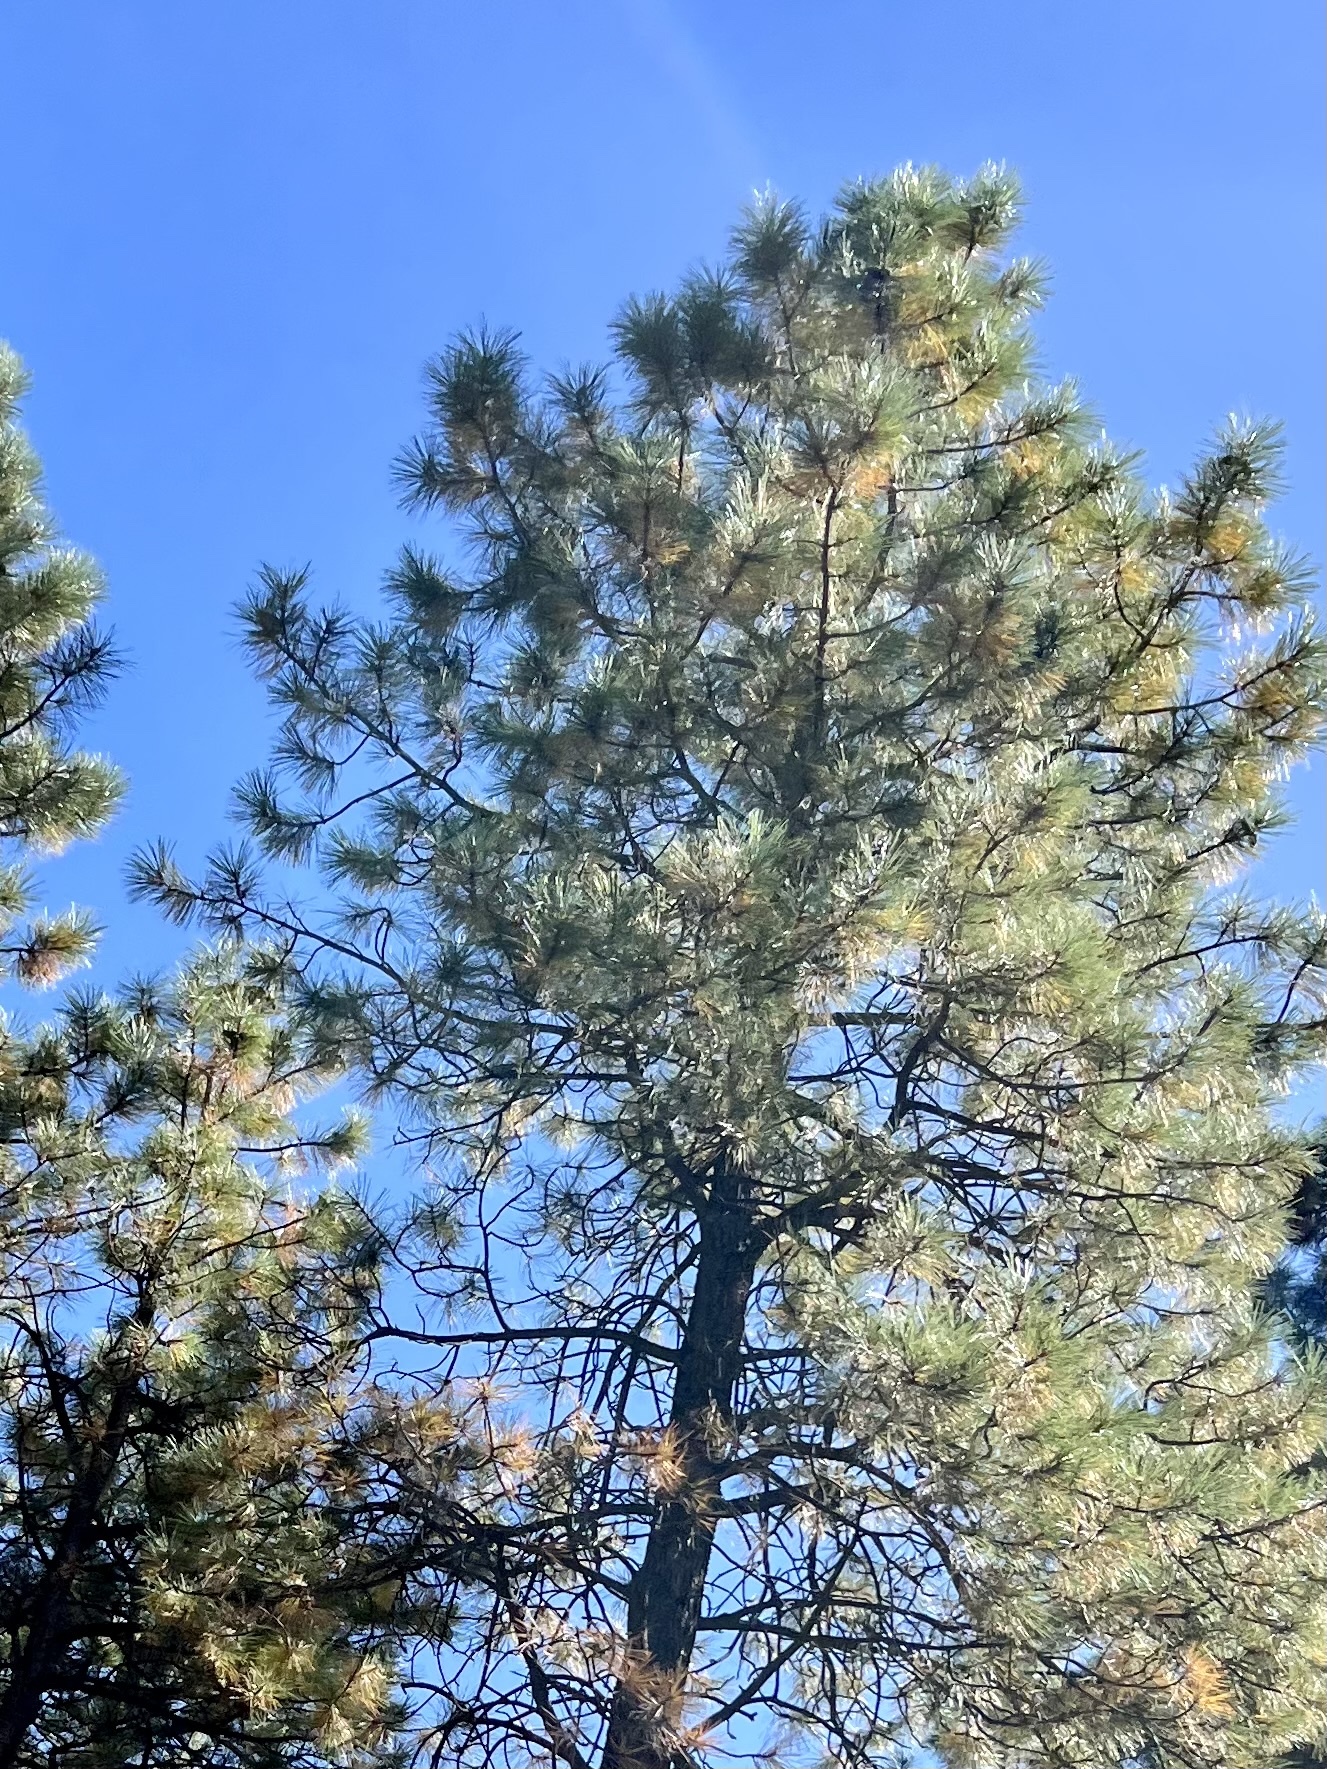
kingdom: Plantae
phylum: Tracheophyta
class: Pinopsida
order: Pinales
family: Pinaceae
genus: Pinus
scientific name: Pinus ponderosa
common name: Western yellow-pine
